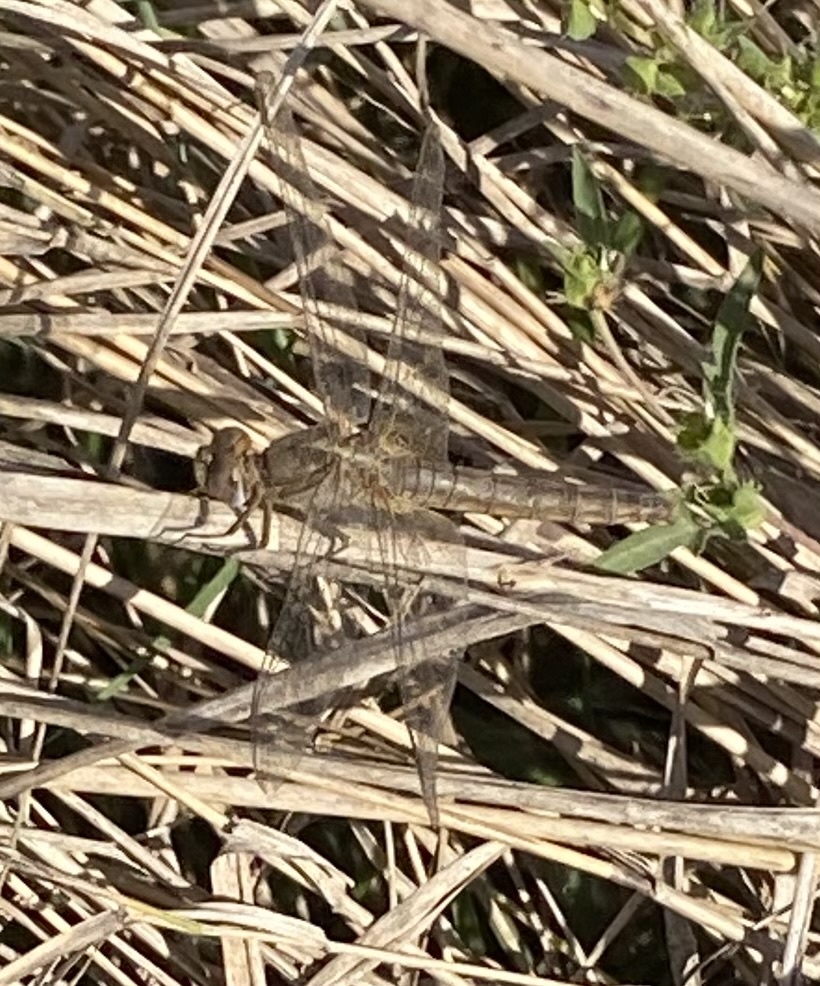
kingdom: Animalia
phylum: Arthropoda
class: Insecta
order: Odonata
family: Libellulidae
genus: Crocothemis
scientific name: Crocothemis erythraea
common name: Scarlet dragonfly
